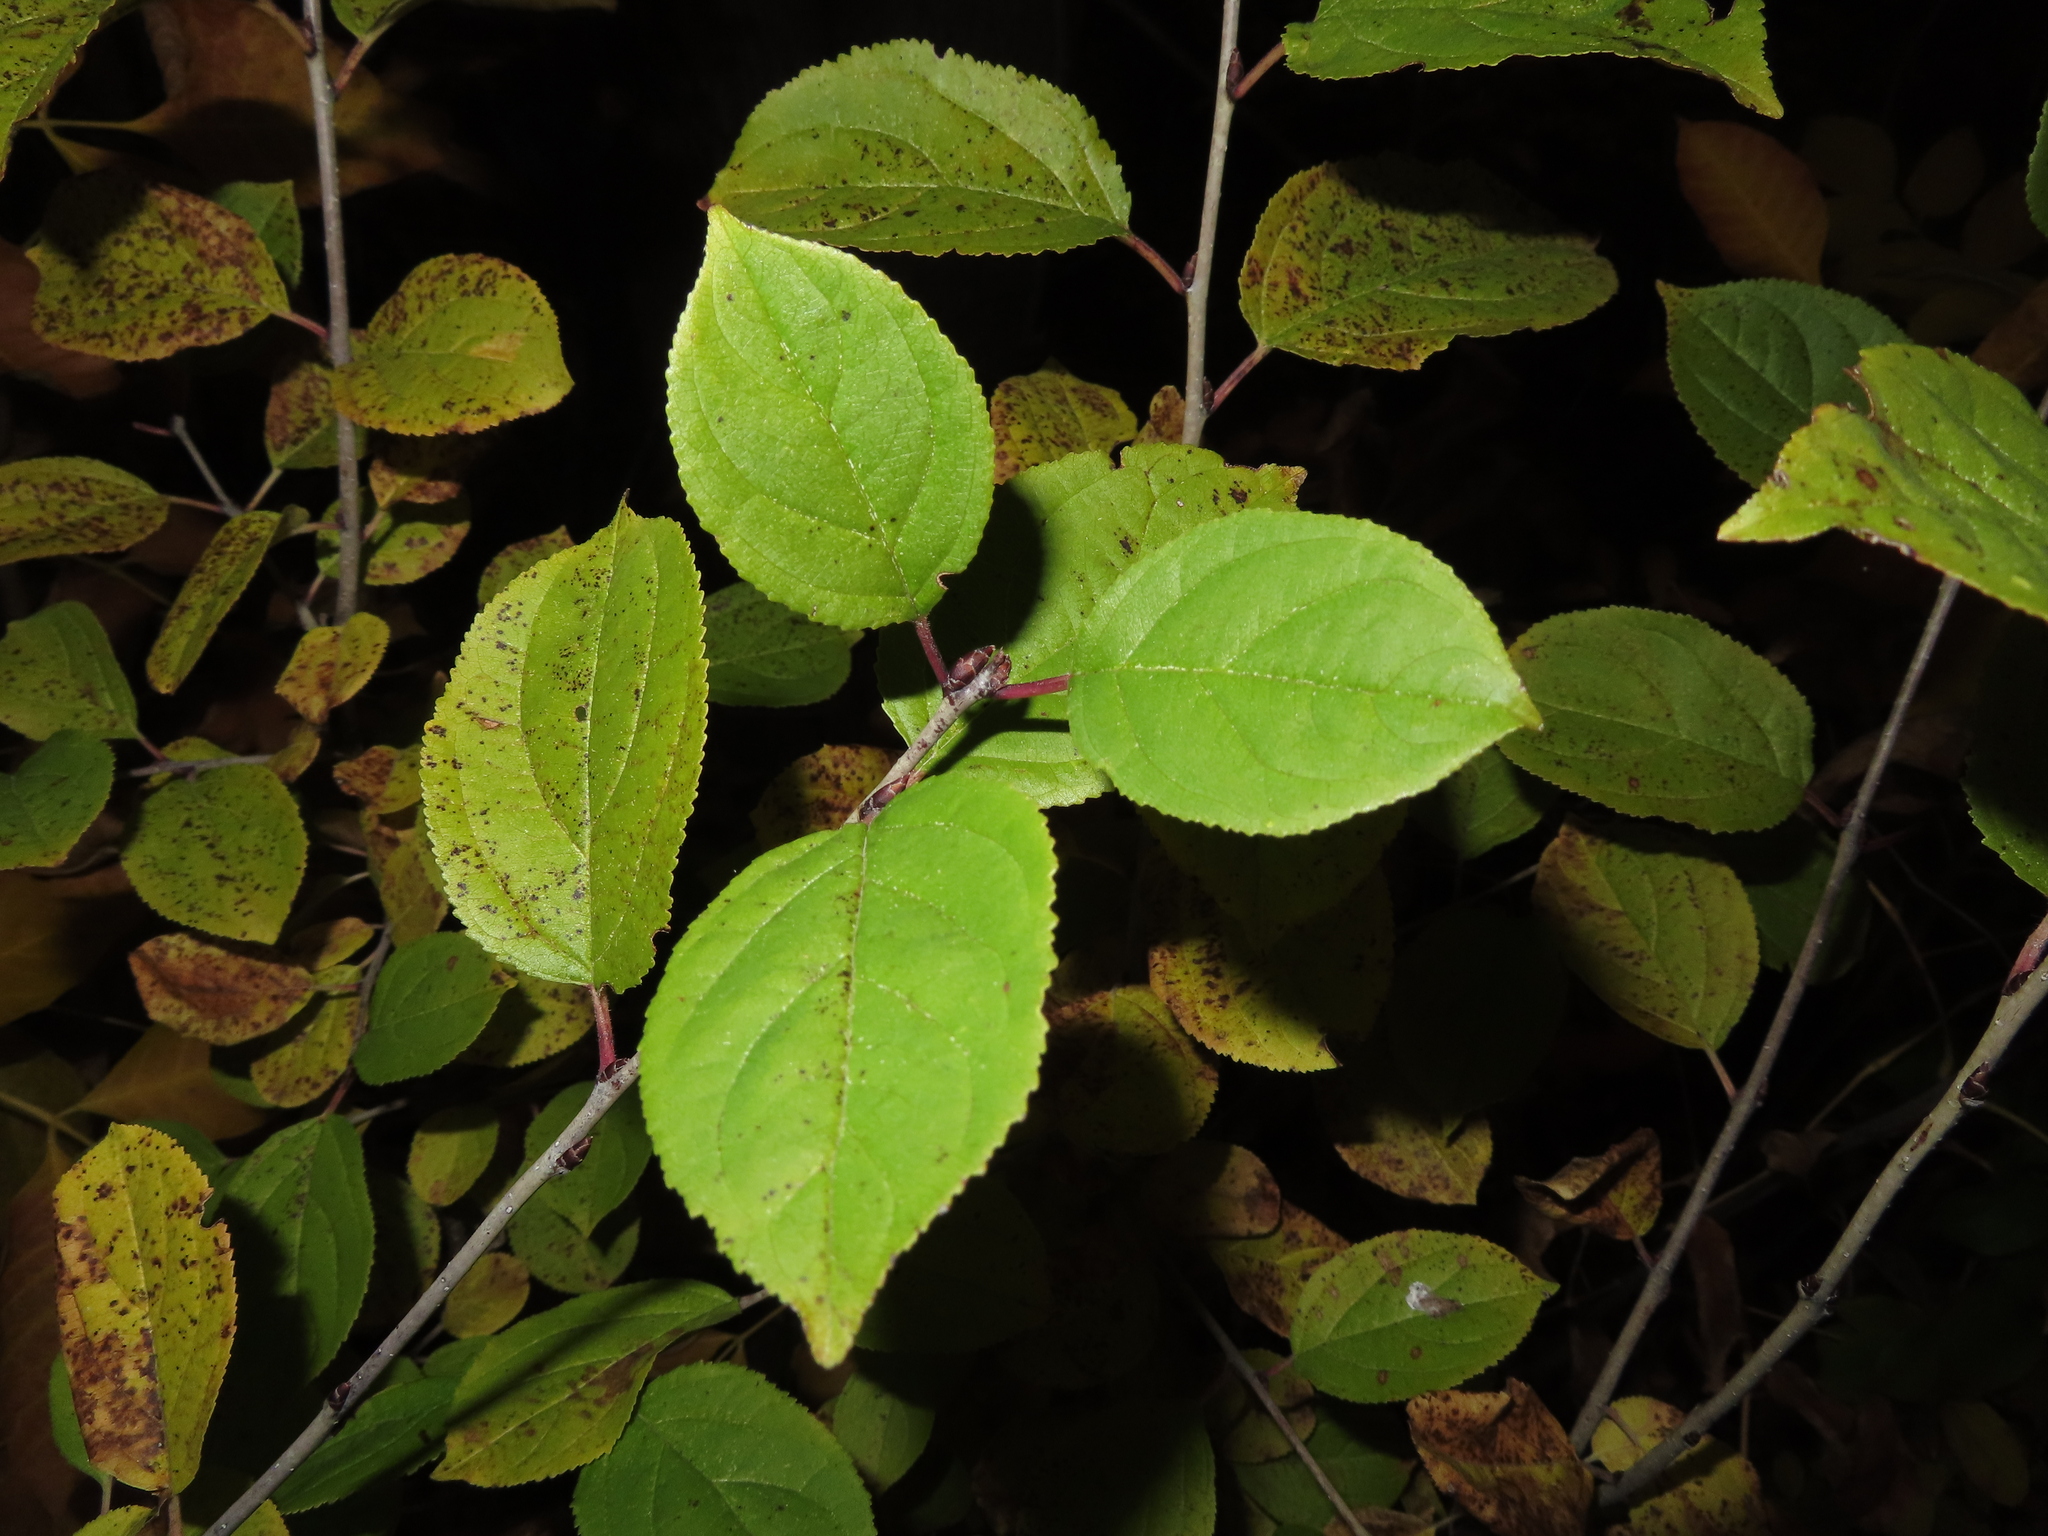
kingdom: Plantae
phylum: Tracheophyta
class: Magnoliopsida
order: Rosales
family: Rhamnaceae
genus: Rhamnus
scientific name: Rhamnus cathartica
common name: Common buckthorn
